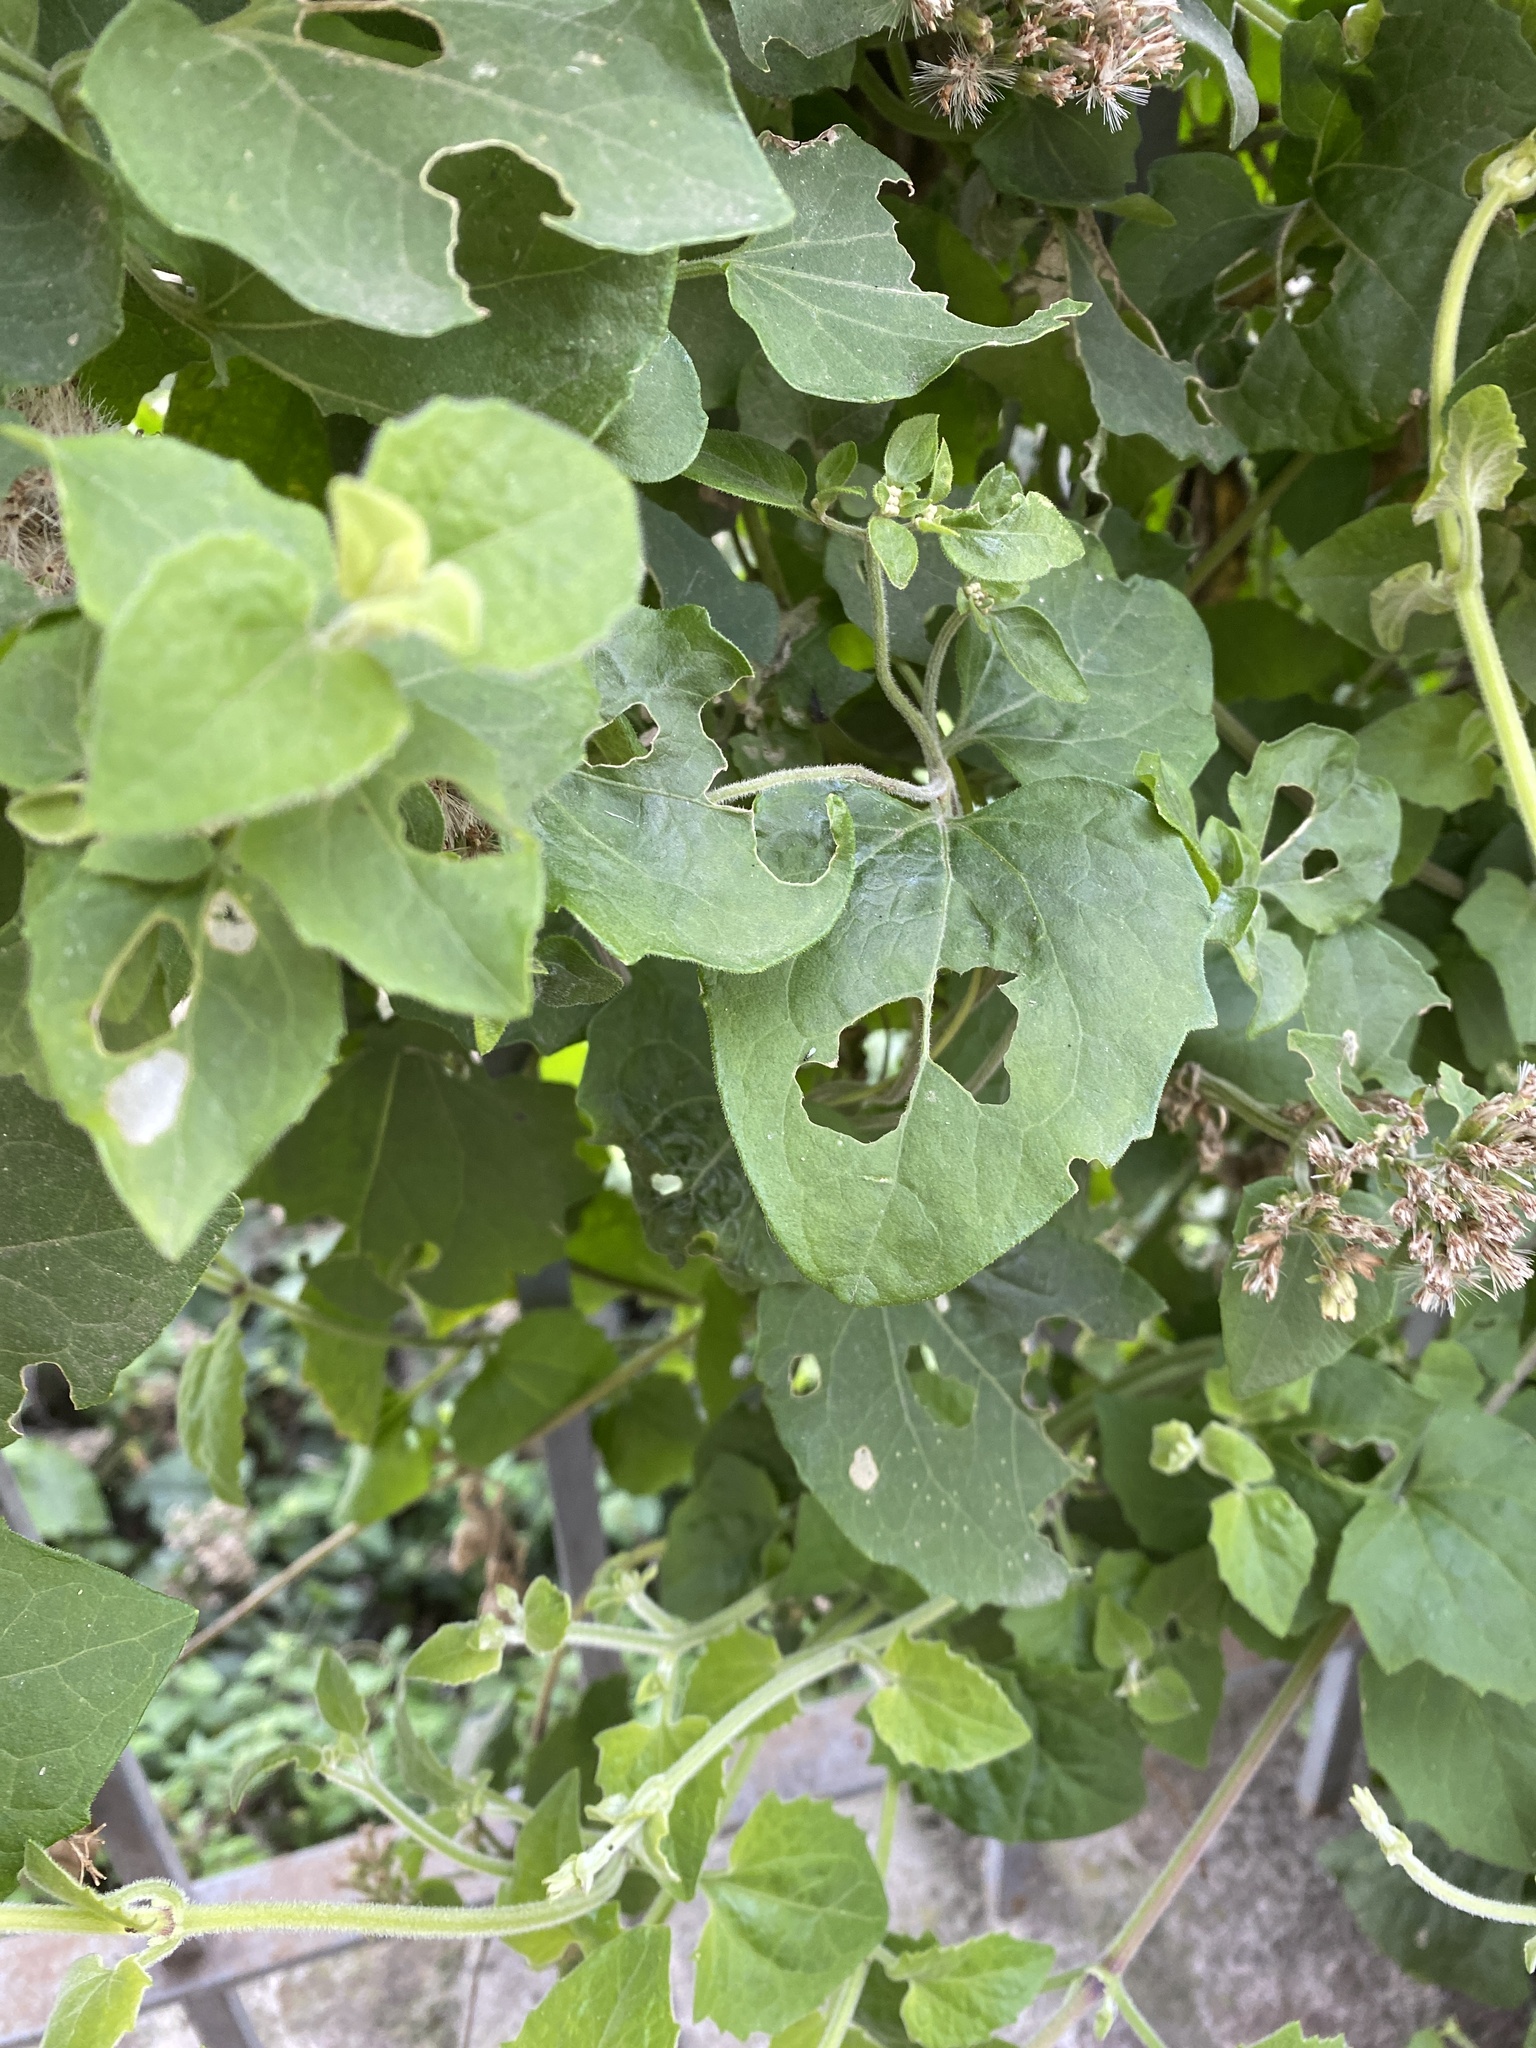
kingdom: Plantae
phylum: Tracheophyta
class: Magnoliopsida
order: Asterales
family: Asteraceae
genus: Mikania
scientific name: Mikania cordifolia
